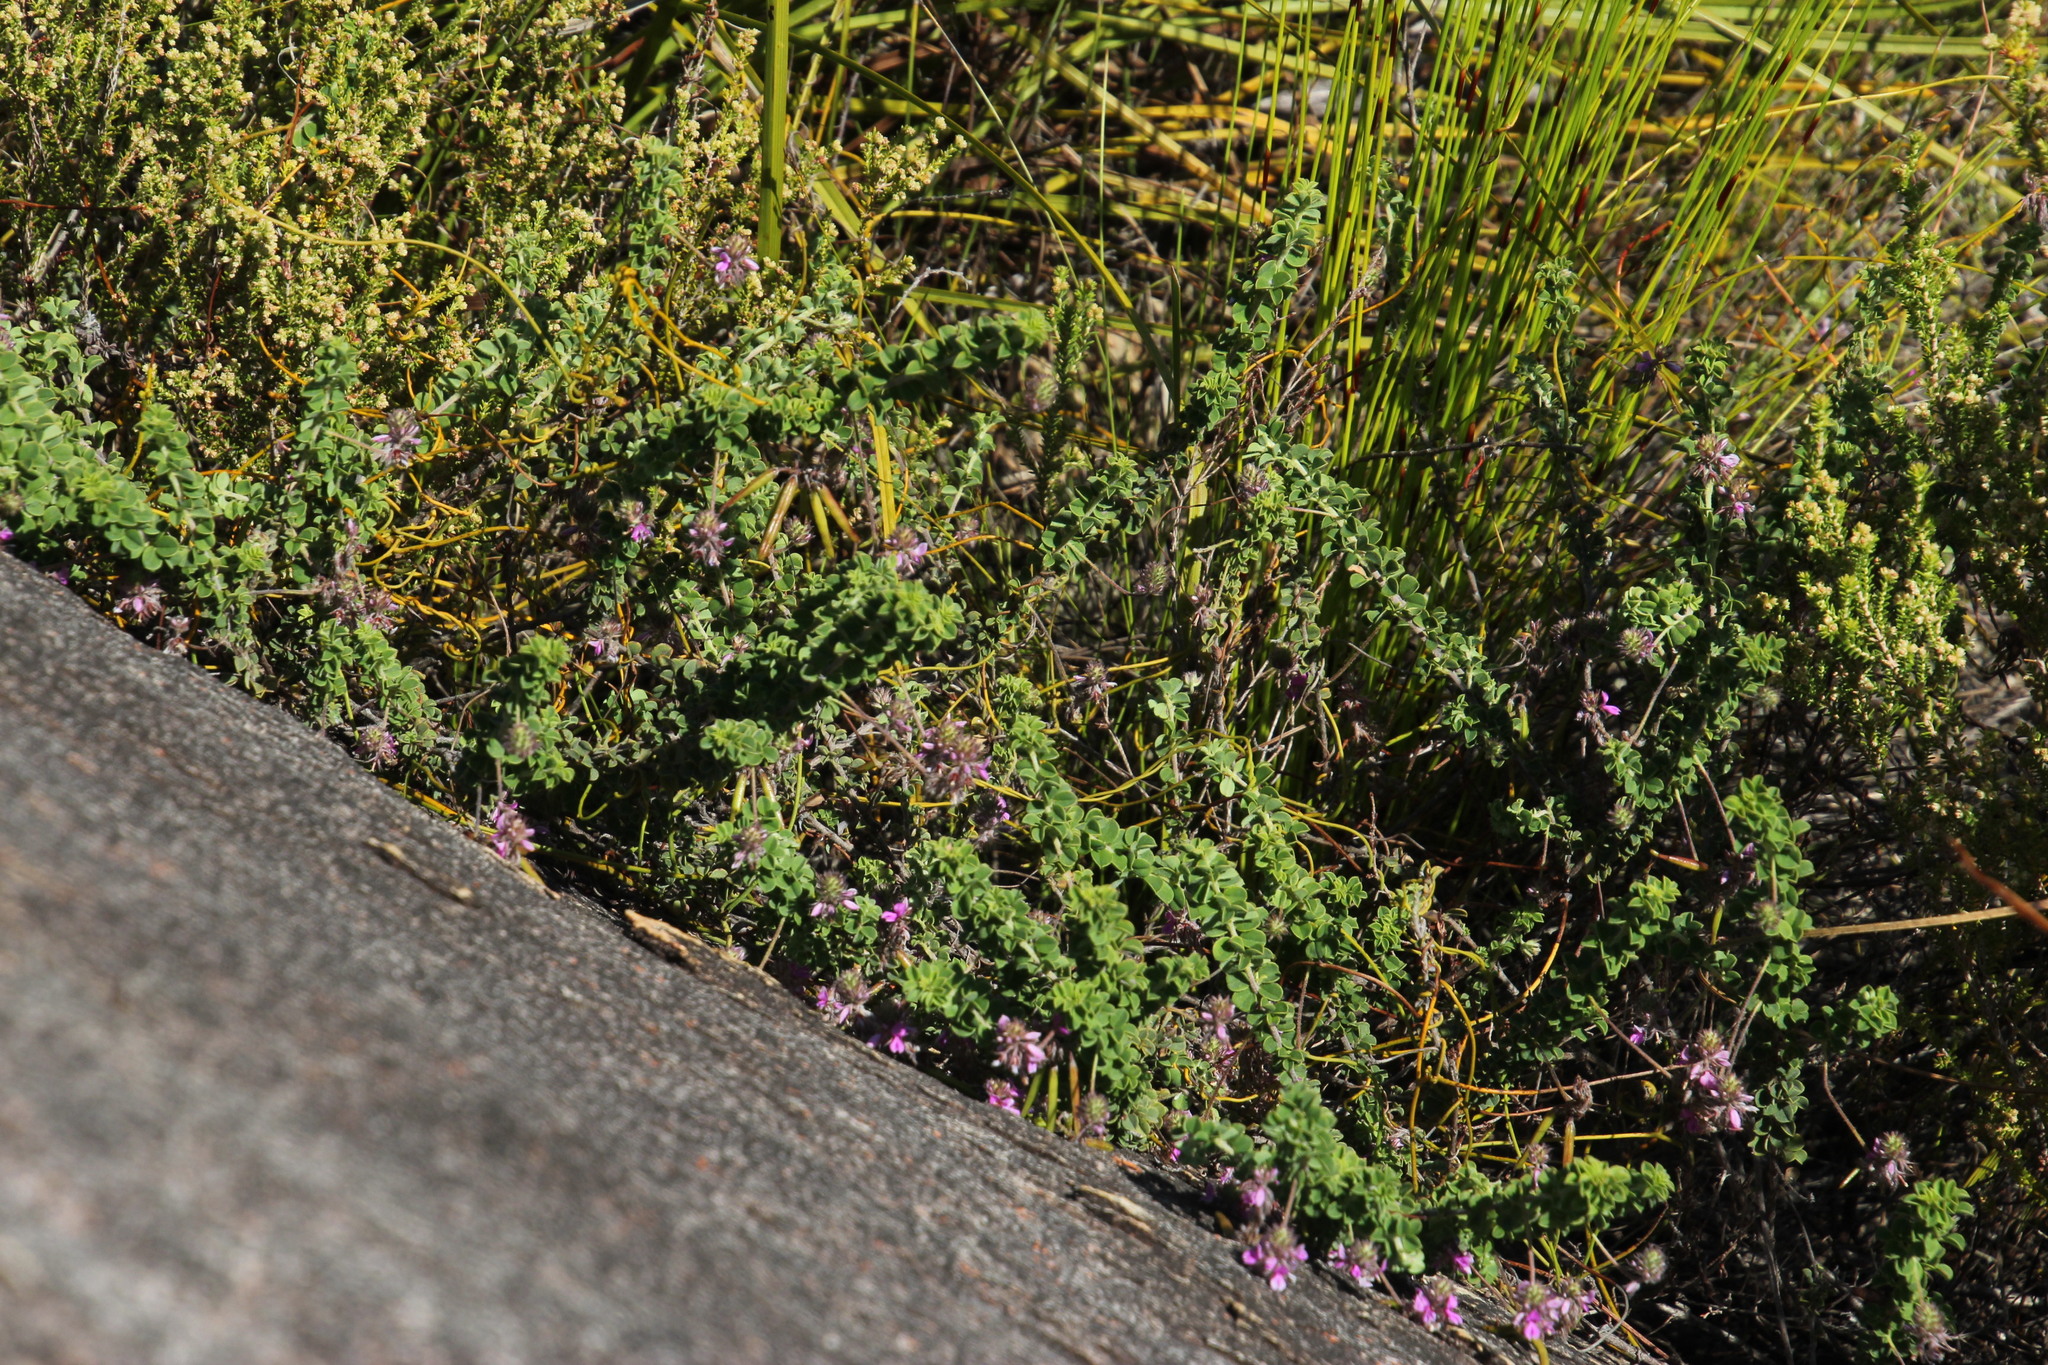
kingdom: Plantae
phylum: Tracheophyta
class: Magnoliopsida
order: Fabales
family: Fabaceae
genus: Indigofera
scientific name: Indigofera alopecuroides
